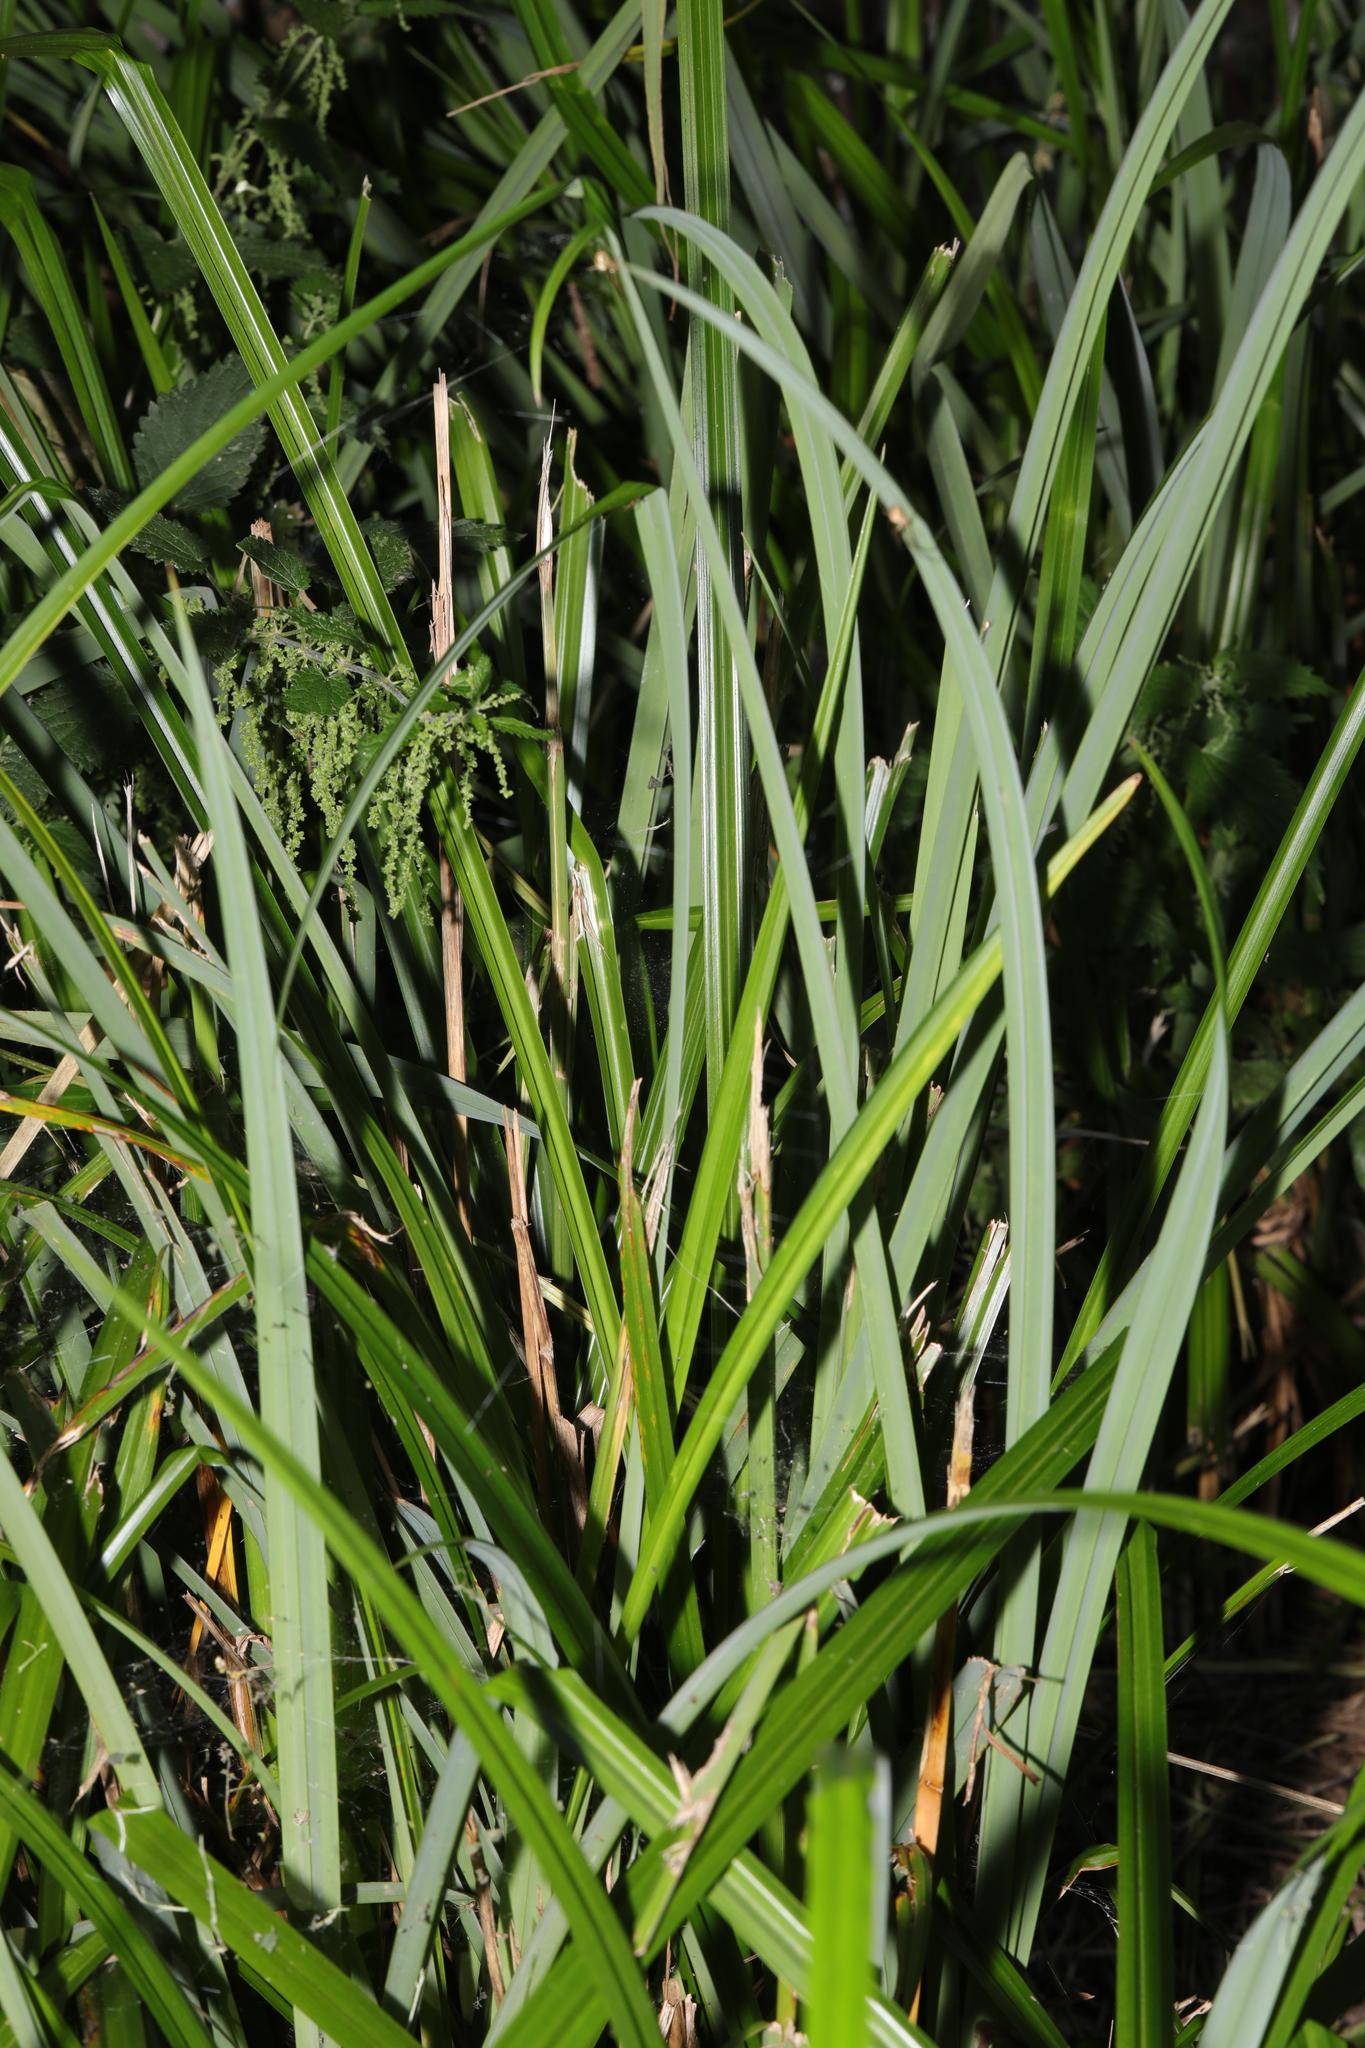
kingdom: Plantae
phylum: Tracheophyta
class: Liliopsida
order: Poales
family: Cyperaceae
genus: Carex
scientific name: Carex pendula
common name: Pendulous sedge
